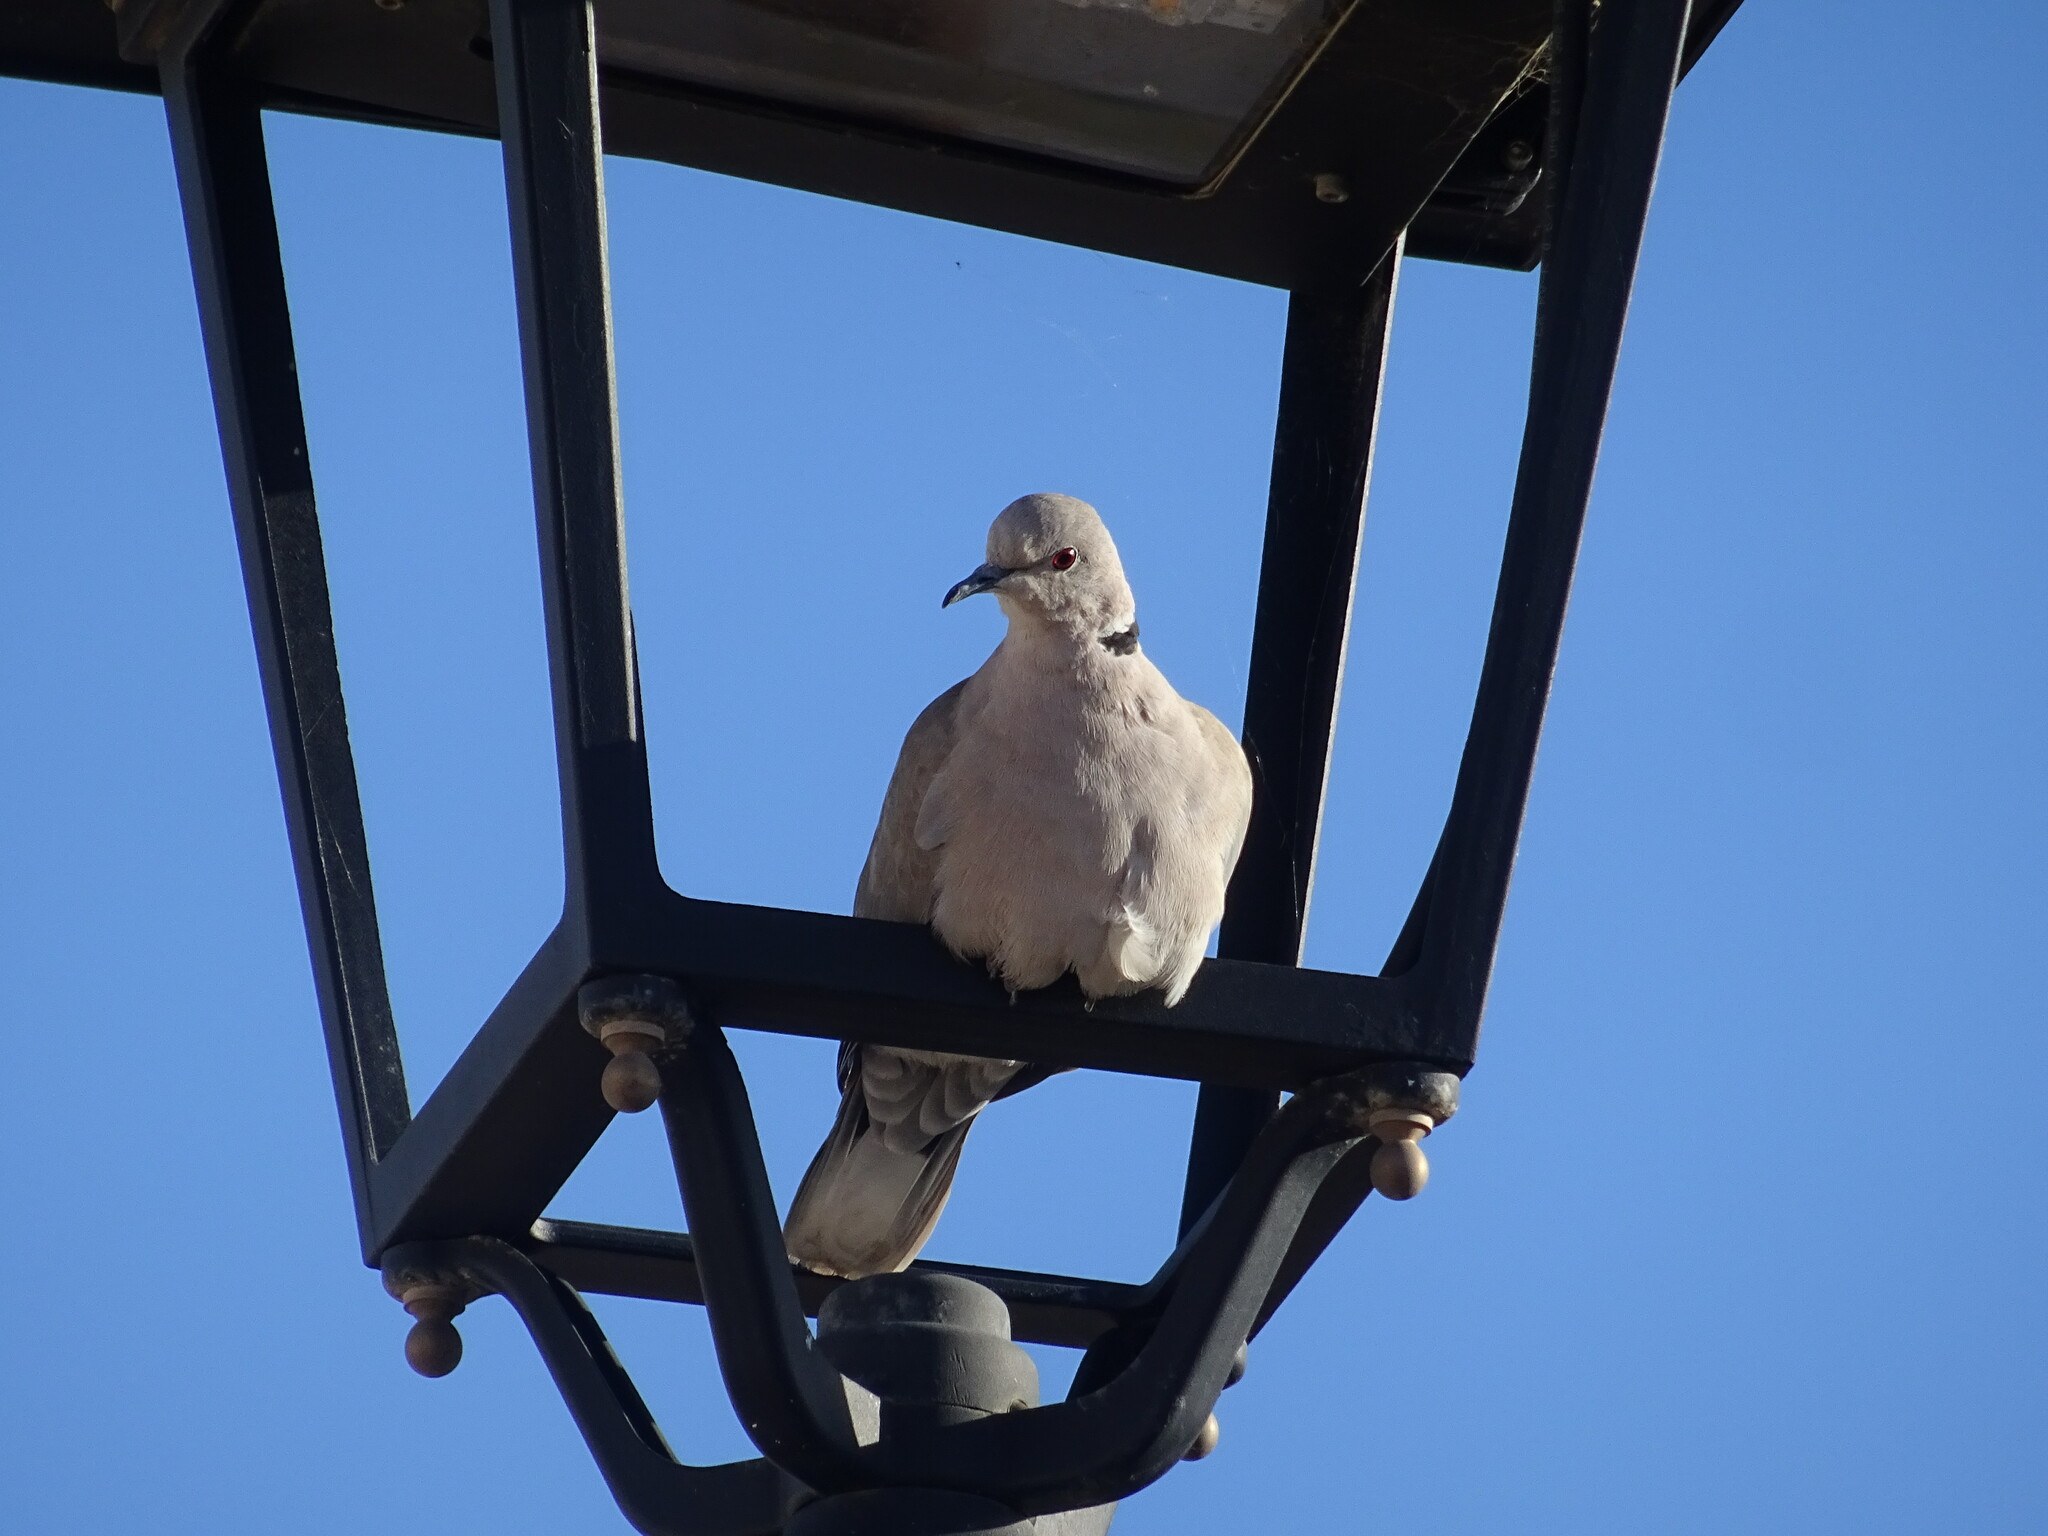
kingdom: Animalia
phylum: Chordata
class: Aves
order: Columbiformes
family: Columbidae
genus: Streptopelia
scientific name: Streptopelia decaocto
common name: Eurasian collared dove
